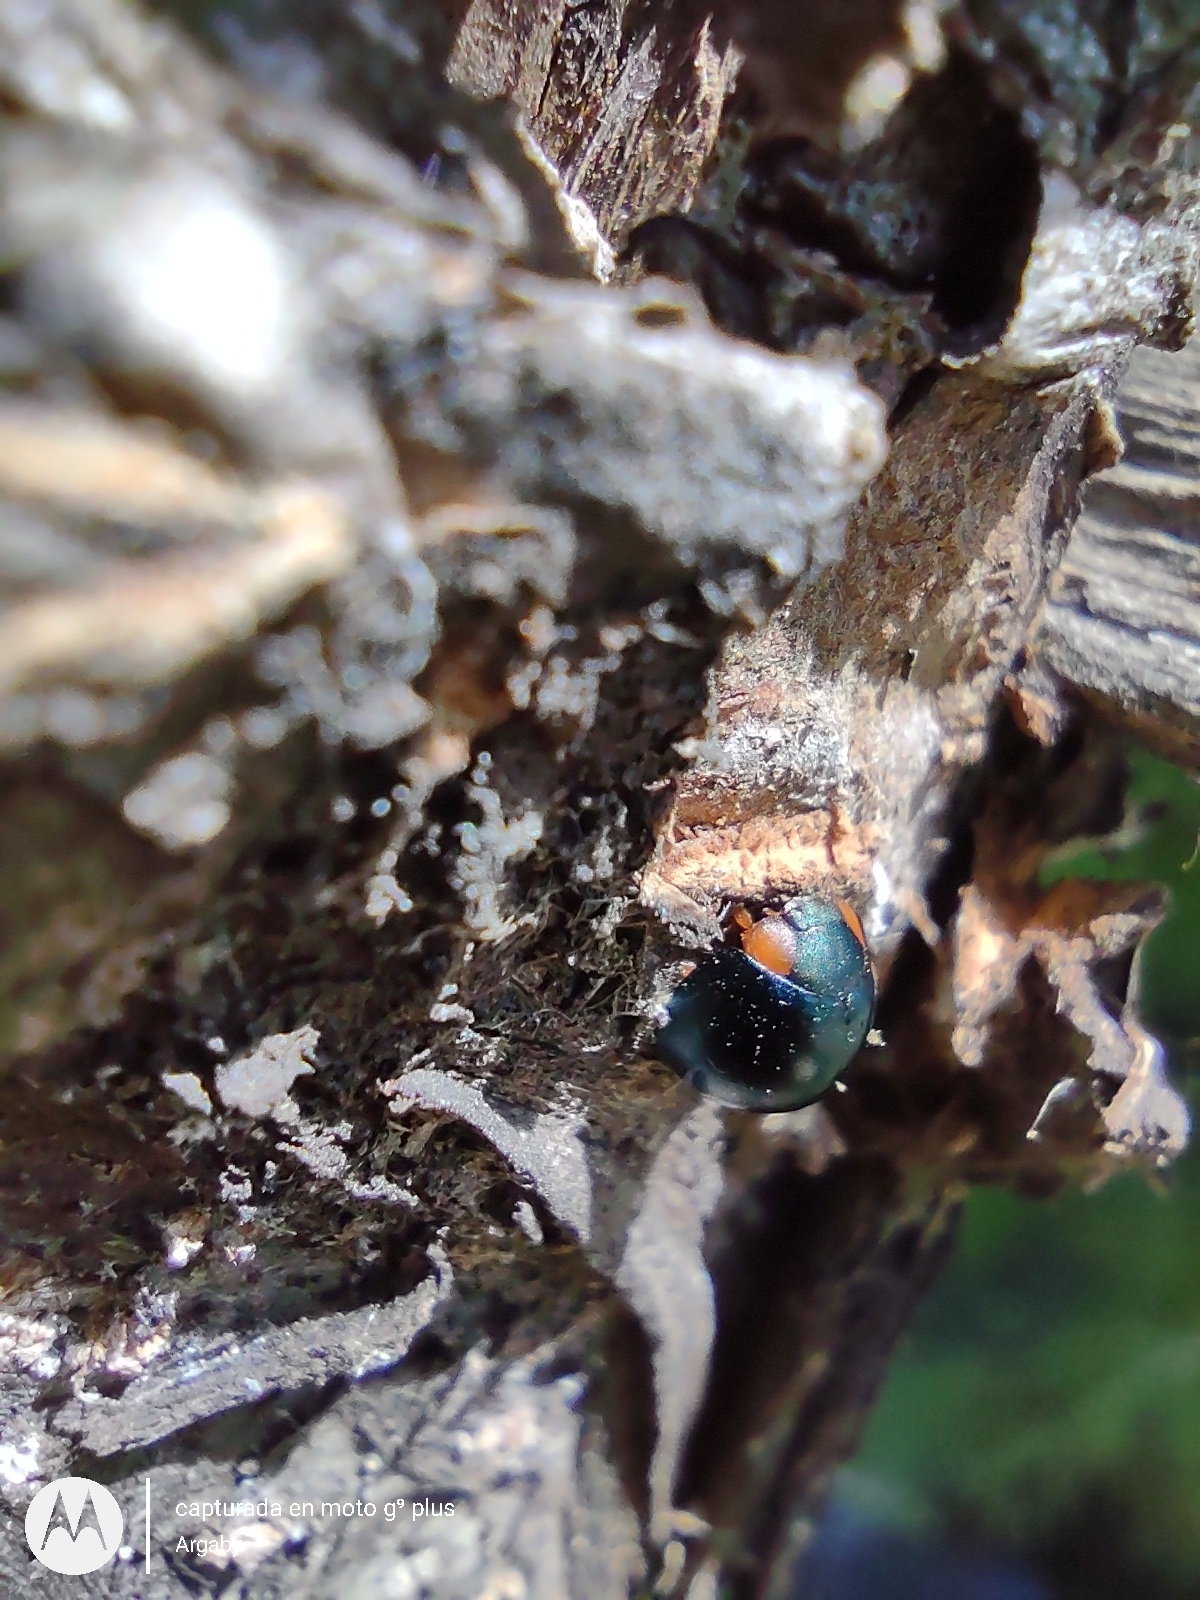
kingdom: Animalia
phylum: Arthropoda
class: Insecta
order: Coleoptera
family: Coccinellidae
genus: Curinus
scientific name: Curinus coeruleus
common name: Ladybird beetle
